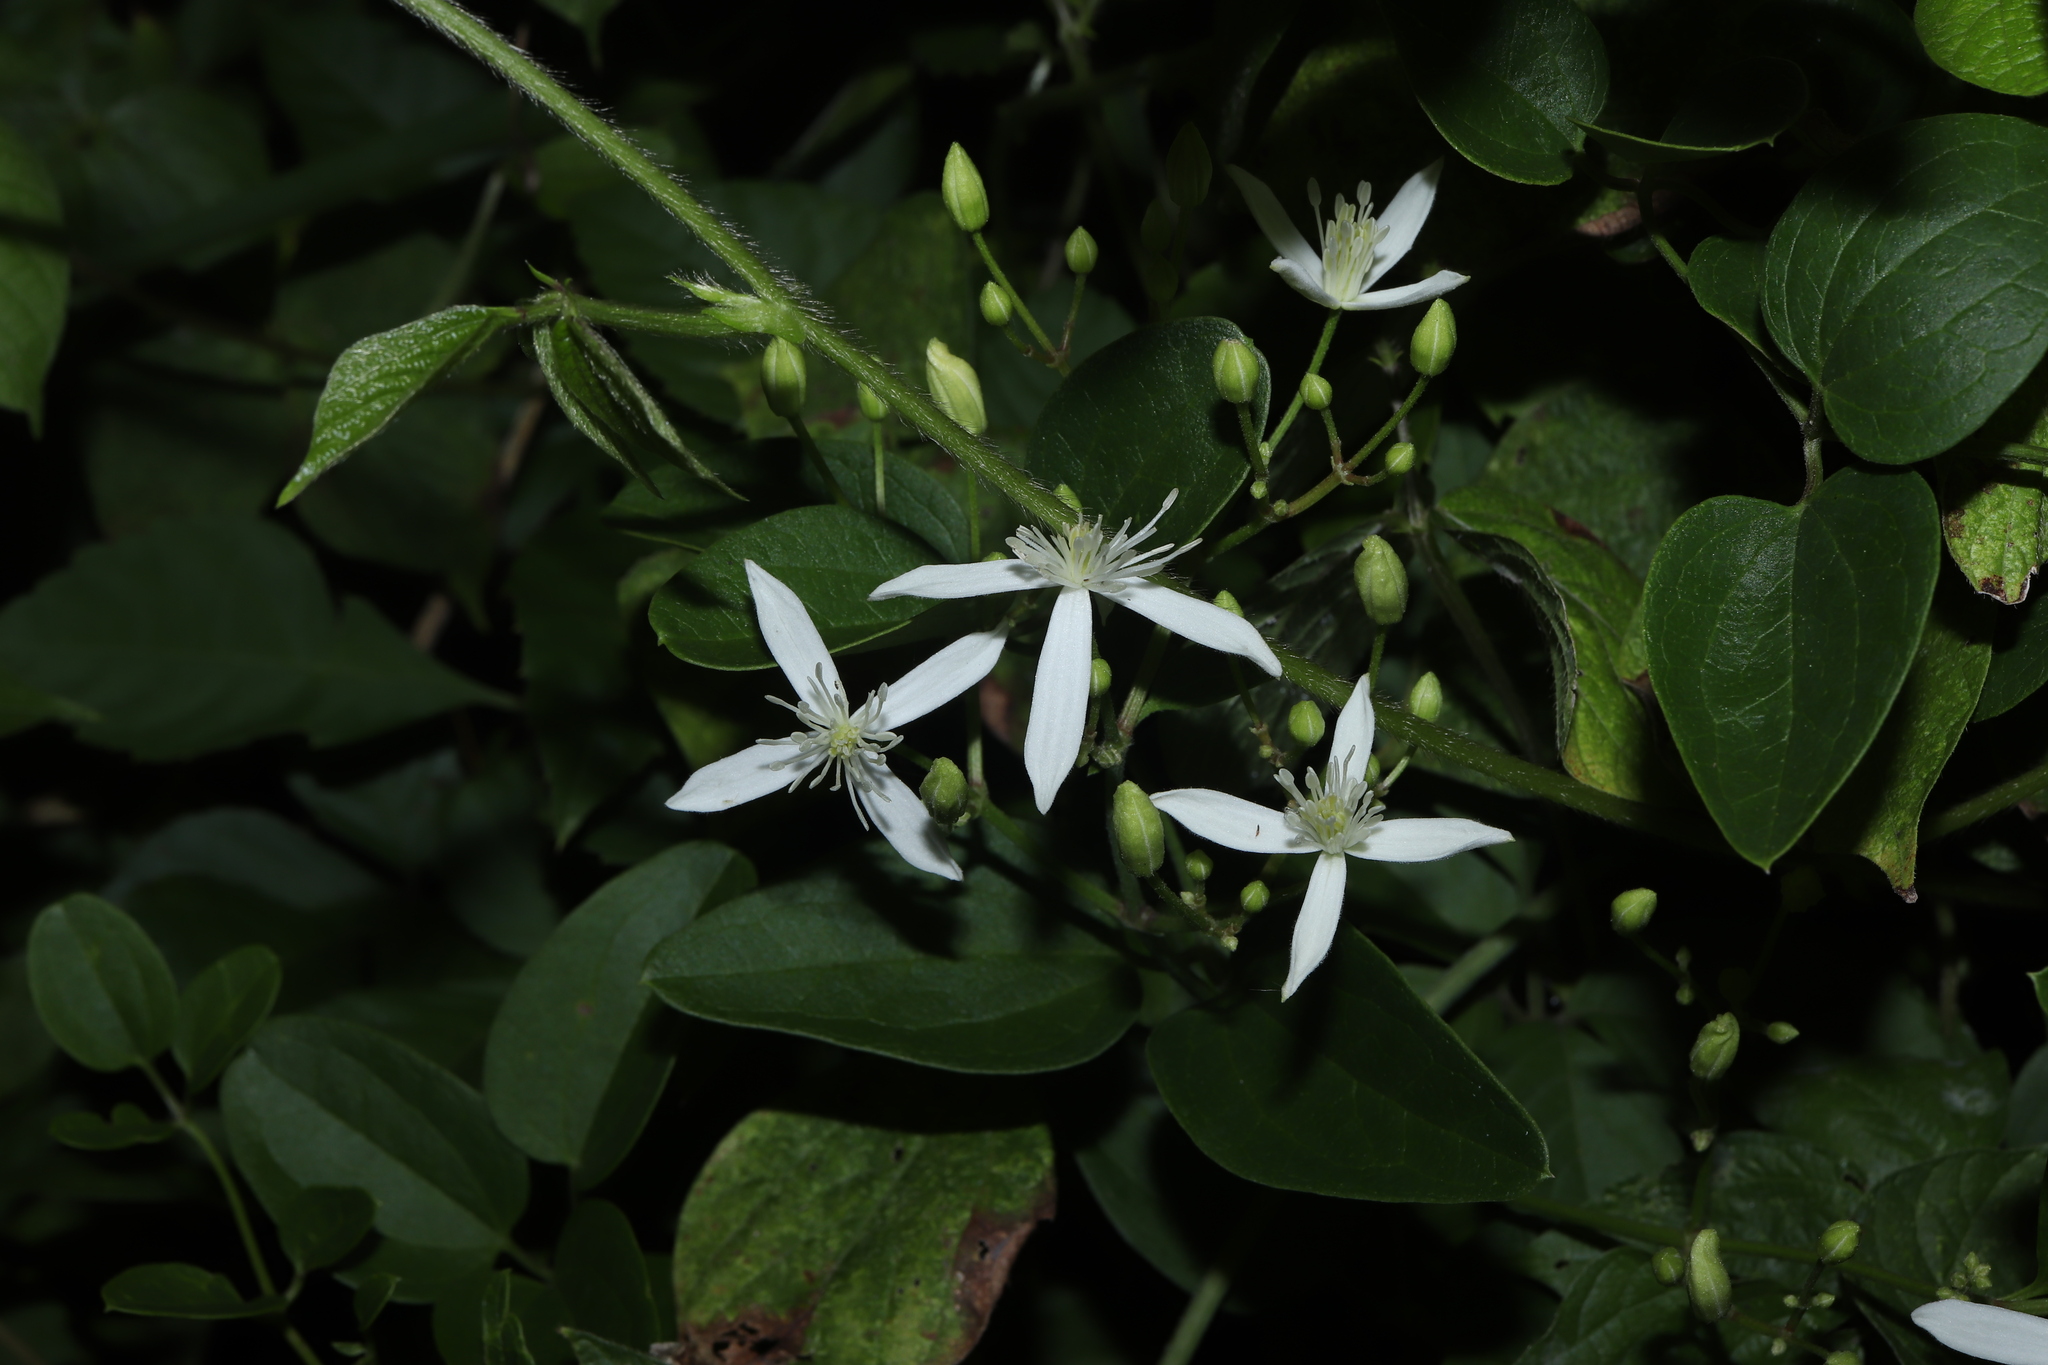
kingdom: Plantae
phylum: Tracheophyta
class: Magnoliopsida
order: Ranunculales
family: Ranunculaceae
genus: Clematis
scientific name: Clematis terniflora
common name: Sweet autumn clematis
